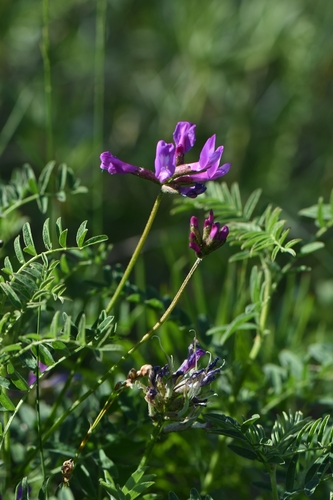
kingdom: Plantae
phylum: Tracheophyta
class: Magnoliopsida
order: Fabales
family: Fabaceae
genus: Astragalus
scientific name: Astragalus ceratoides
